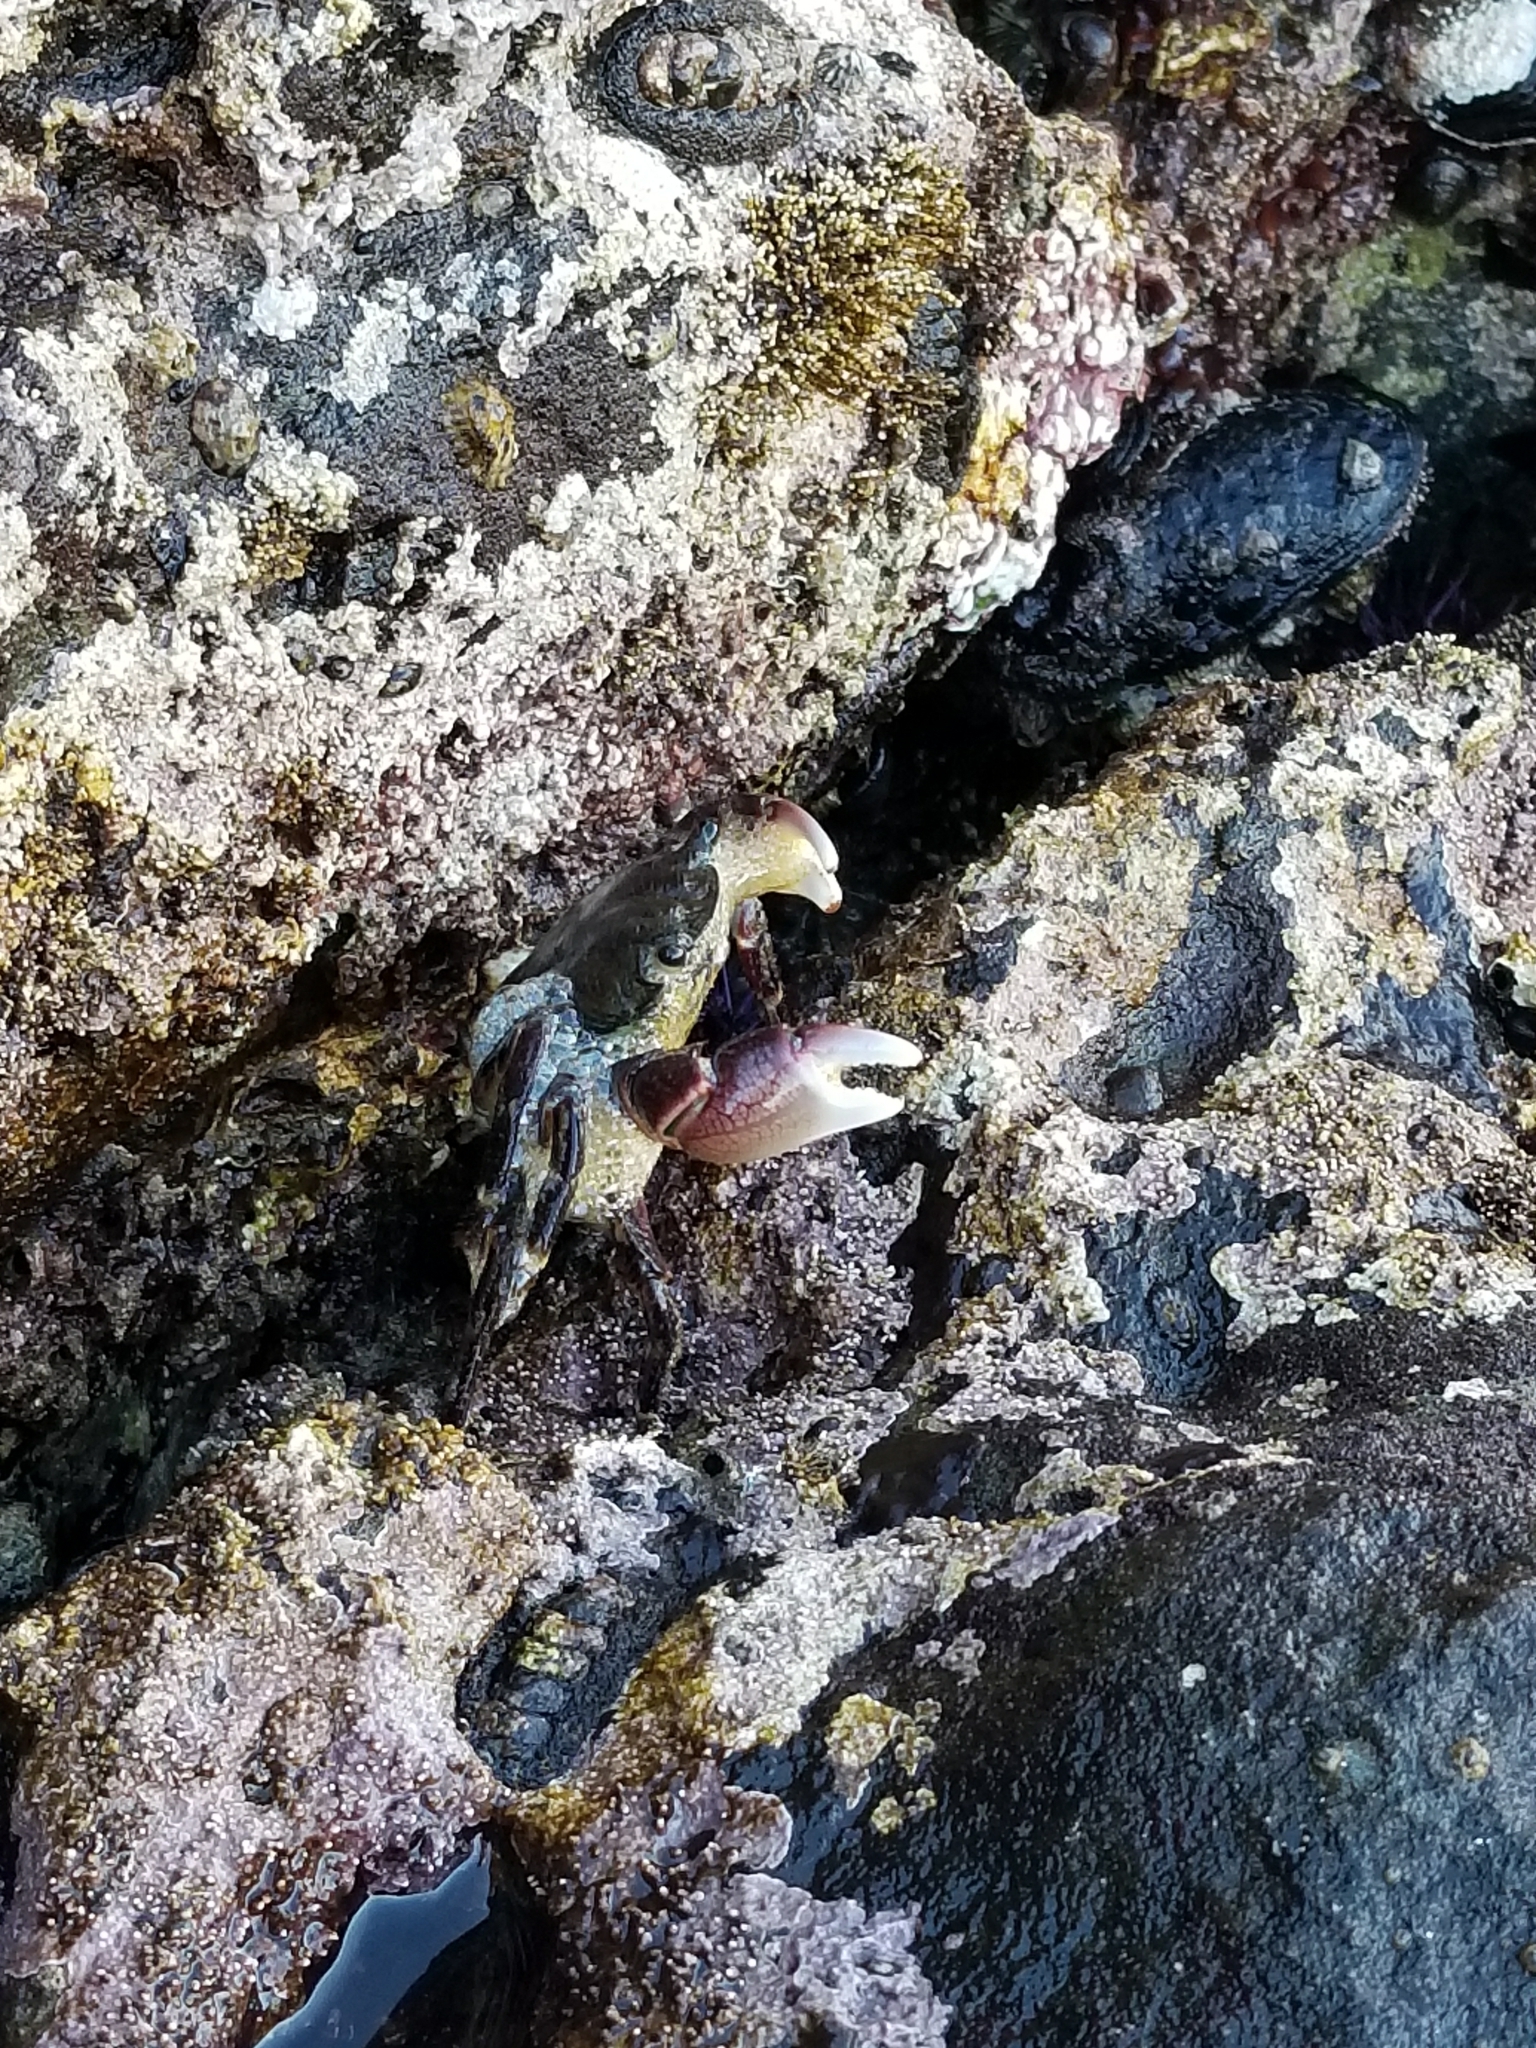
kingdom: Animalia
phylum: Arthropoda
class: Malacostraca
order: Decapoda
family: Grapsidae
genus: Pachygrapsus
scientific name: Pachygrapsus crassipes
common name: Striped shore crab
